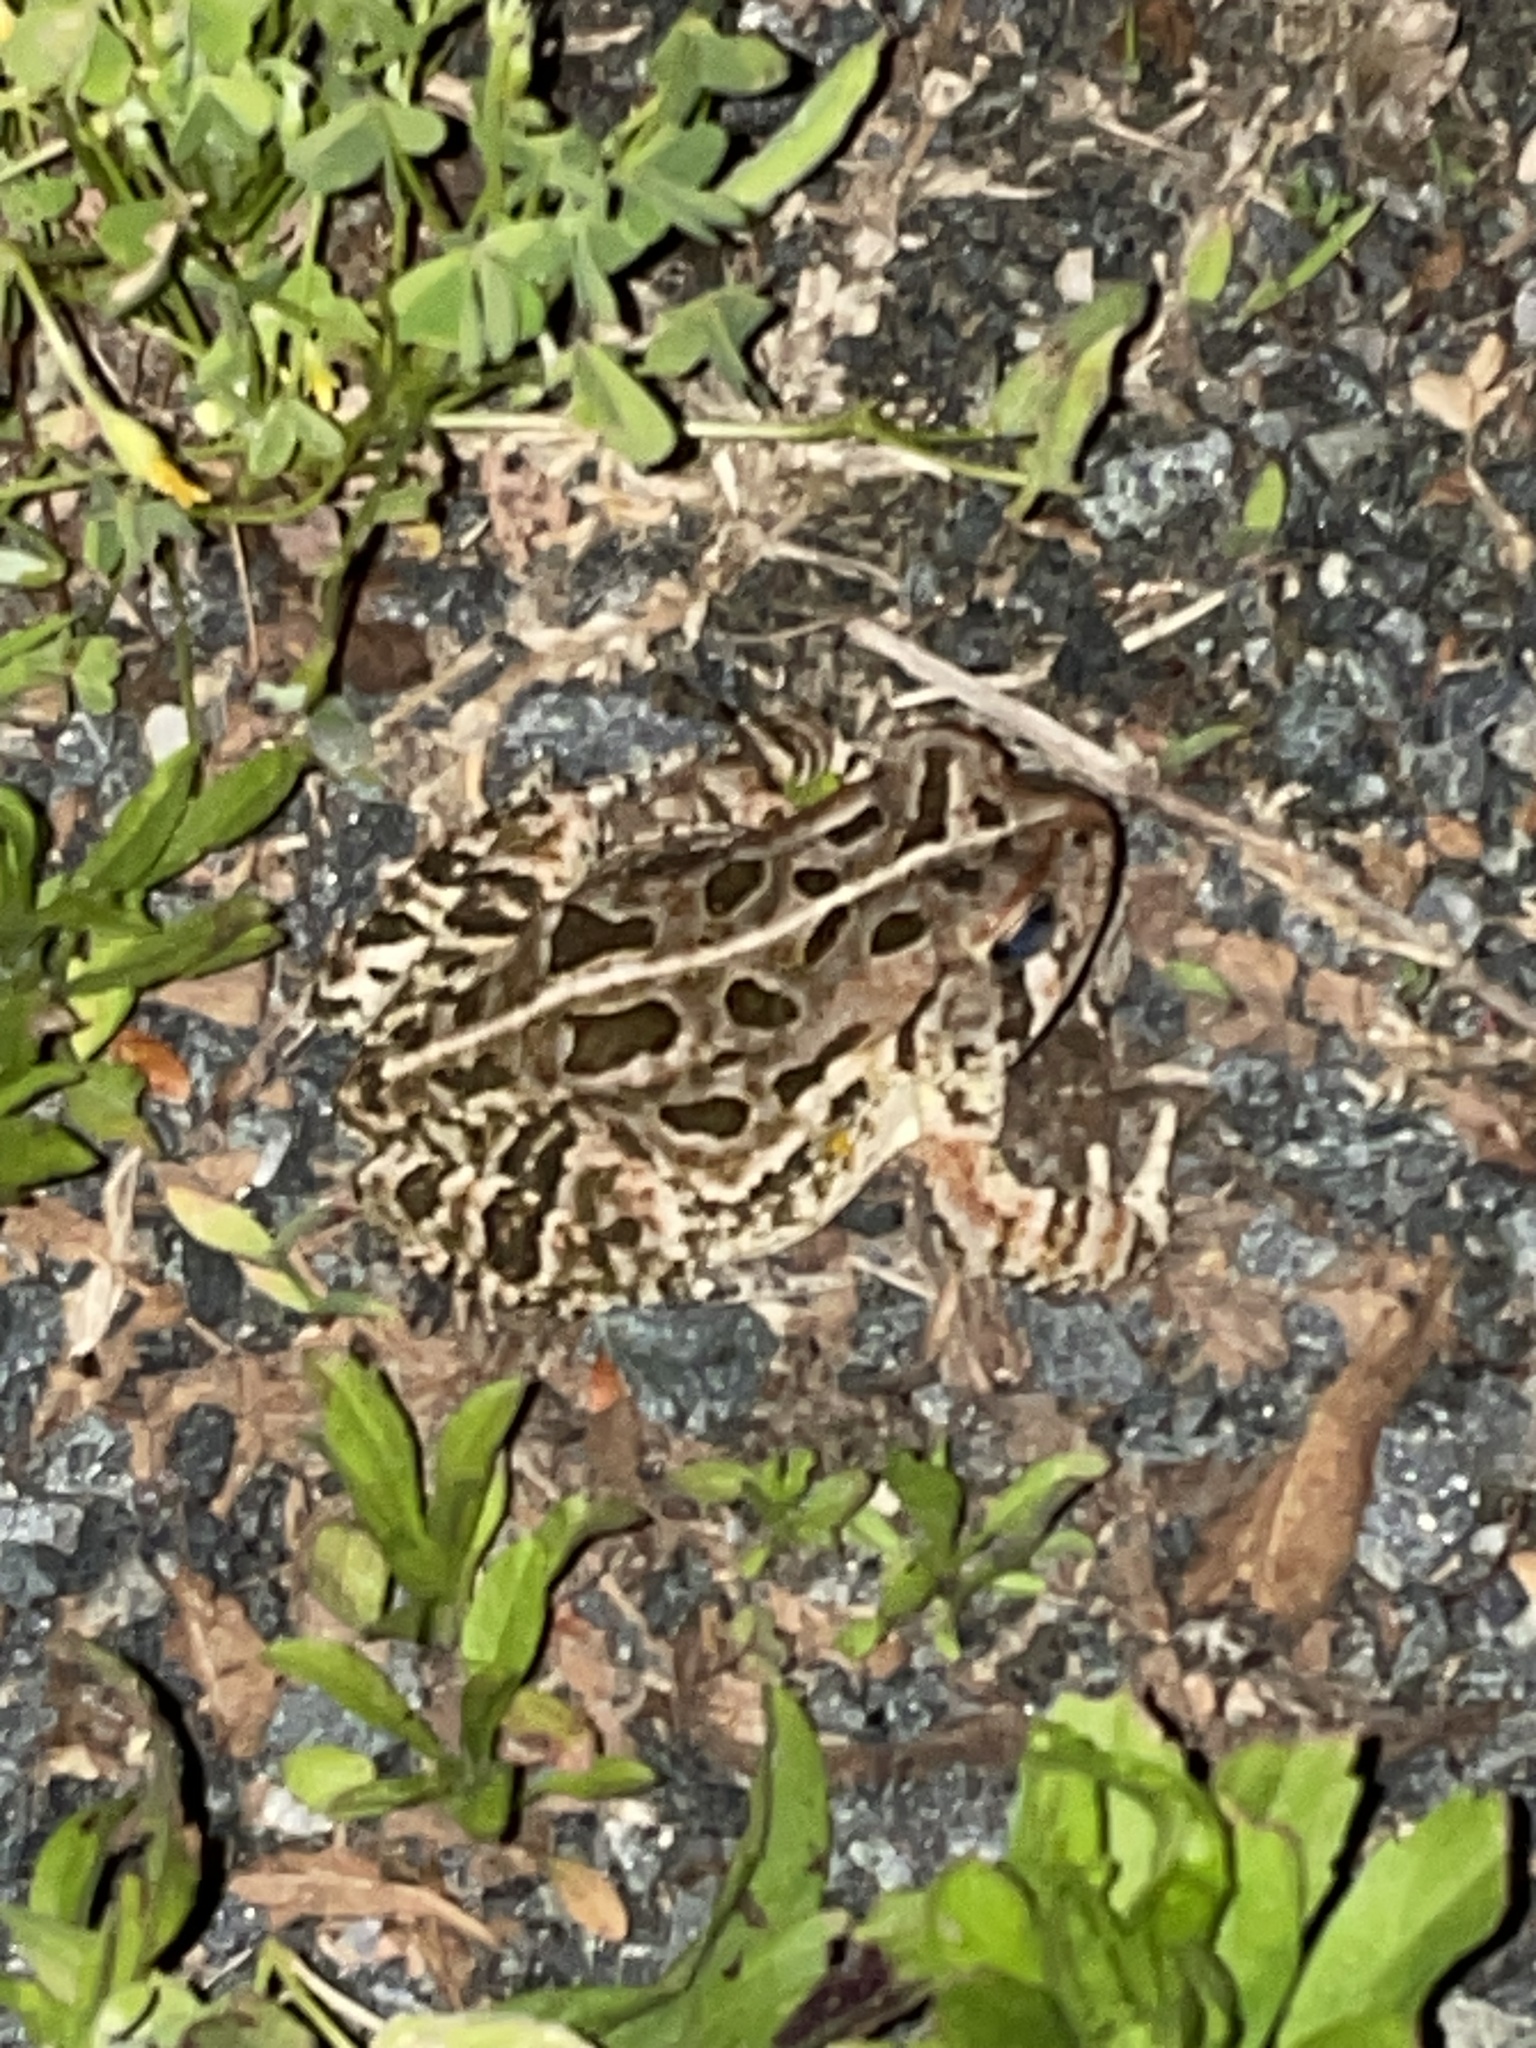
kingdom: Animalia
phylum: Chordata
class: Amphibia
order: Anura
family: Bufonidae
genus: Anaxyrus
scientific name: Anaxyrus fowleri
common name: Fowler's toad
